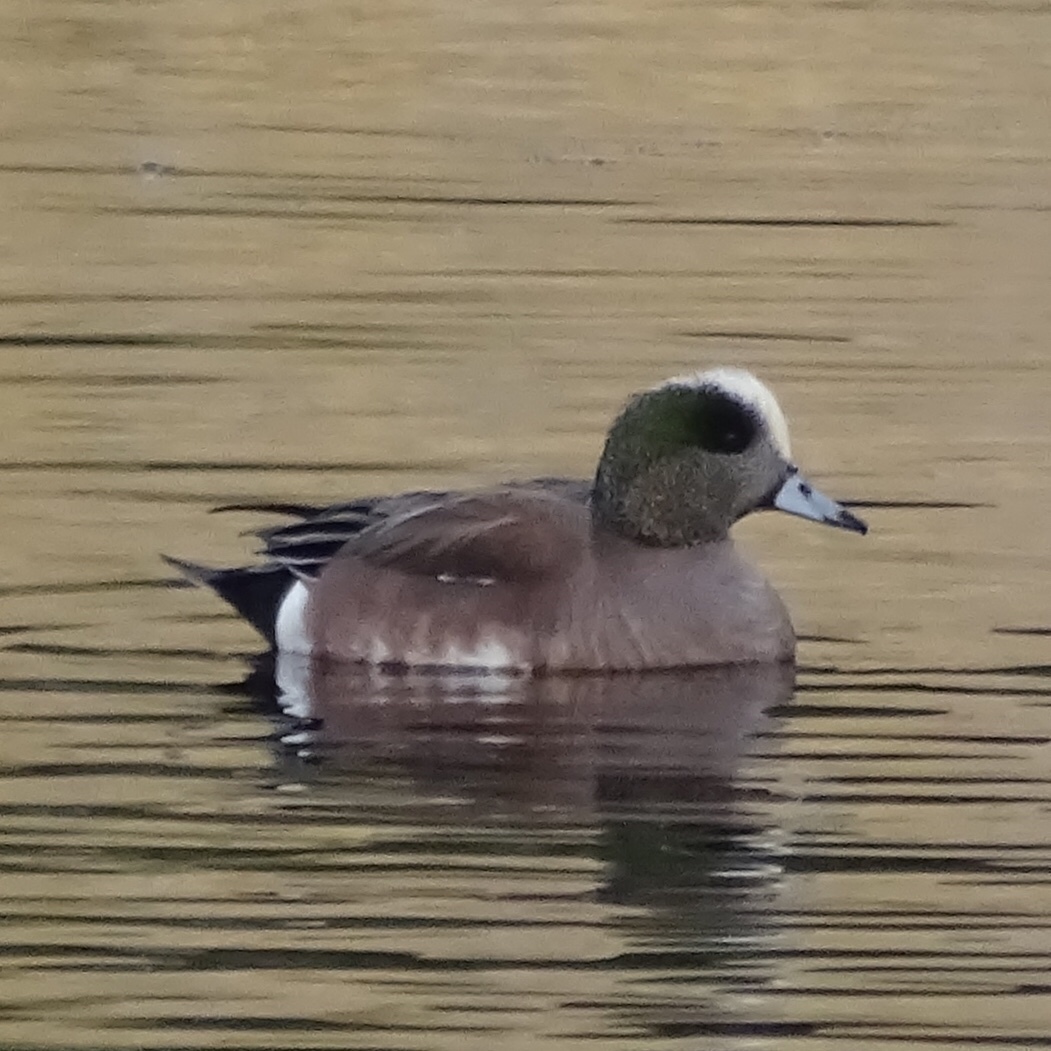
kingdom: Animalia
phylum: Chordata
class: Aves
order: Anseriformes
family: Anatidae
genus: Mareca
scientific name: Mareca americana
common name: American wigeon
